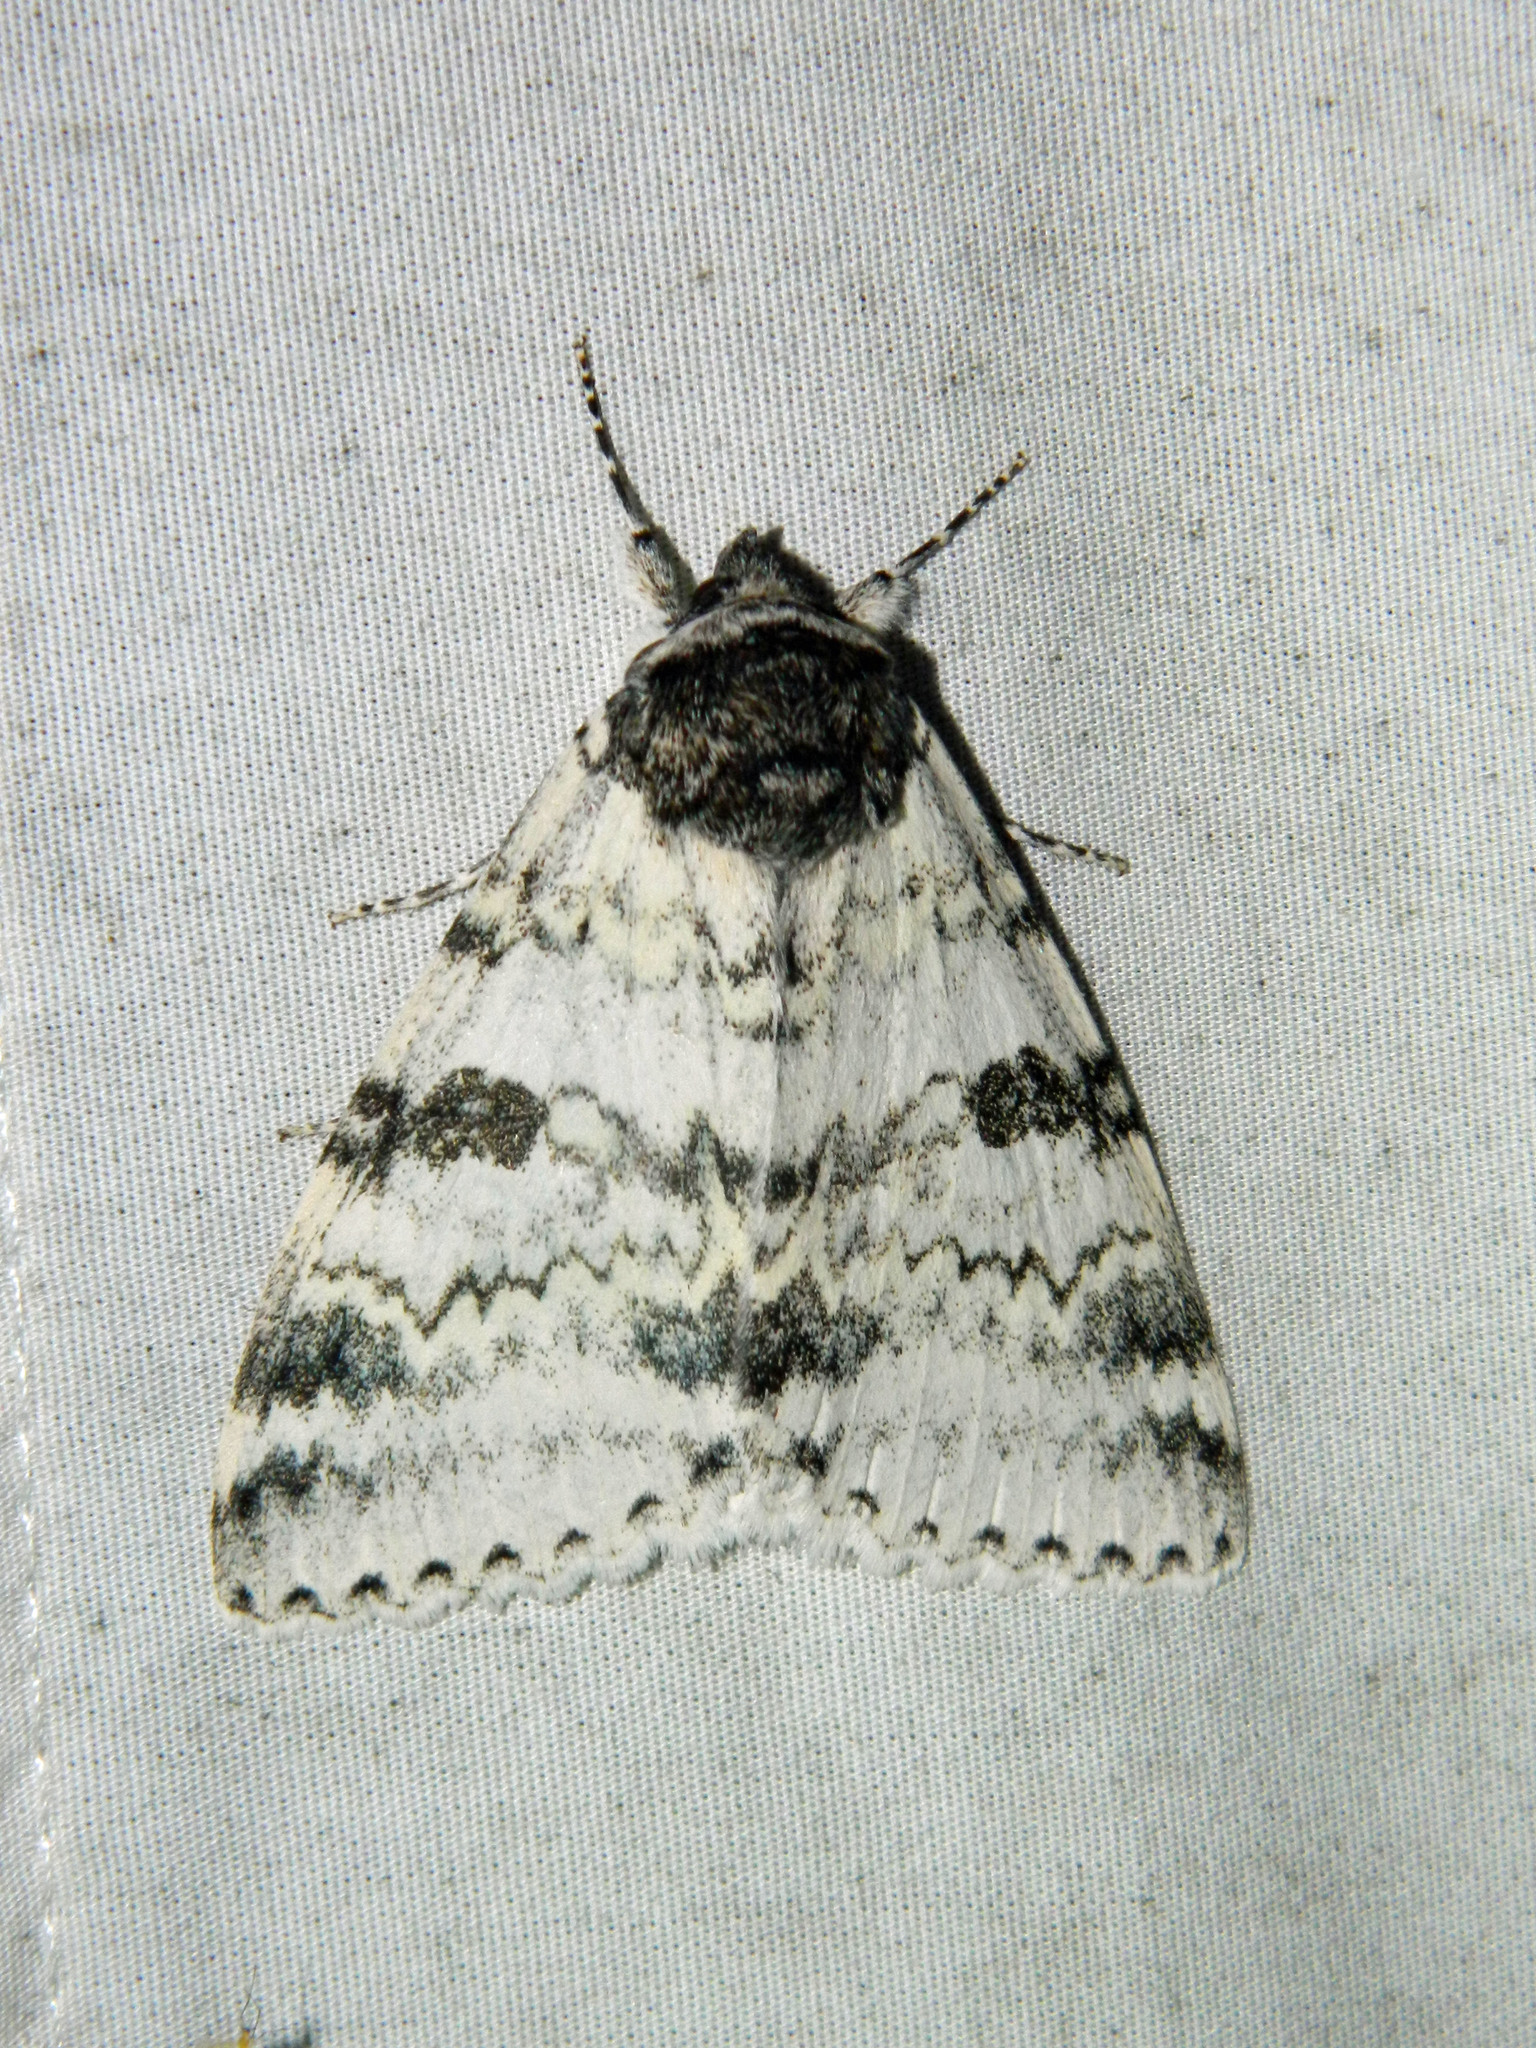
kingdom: Animalia
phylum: Arthropoda
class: Insecta
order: Lepidoptera
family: Erebidae
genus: Catocala
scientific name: Catocala relicta
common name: White underwing
